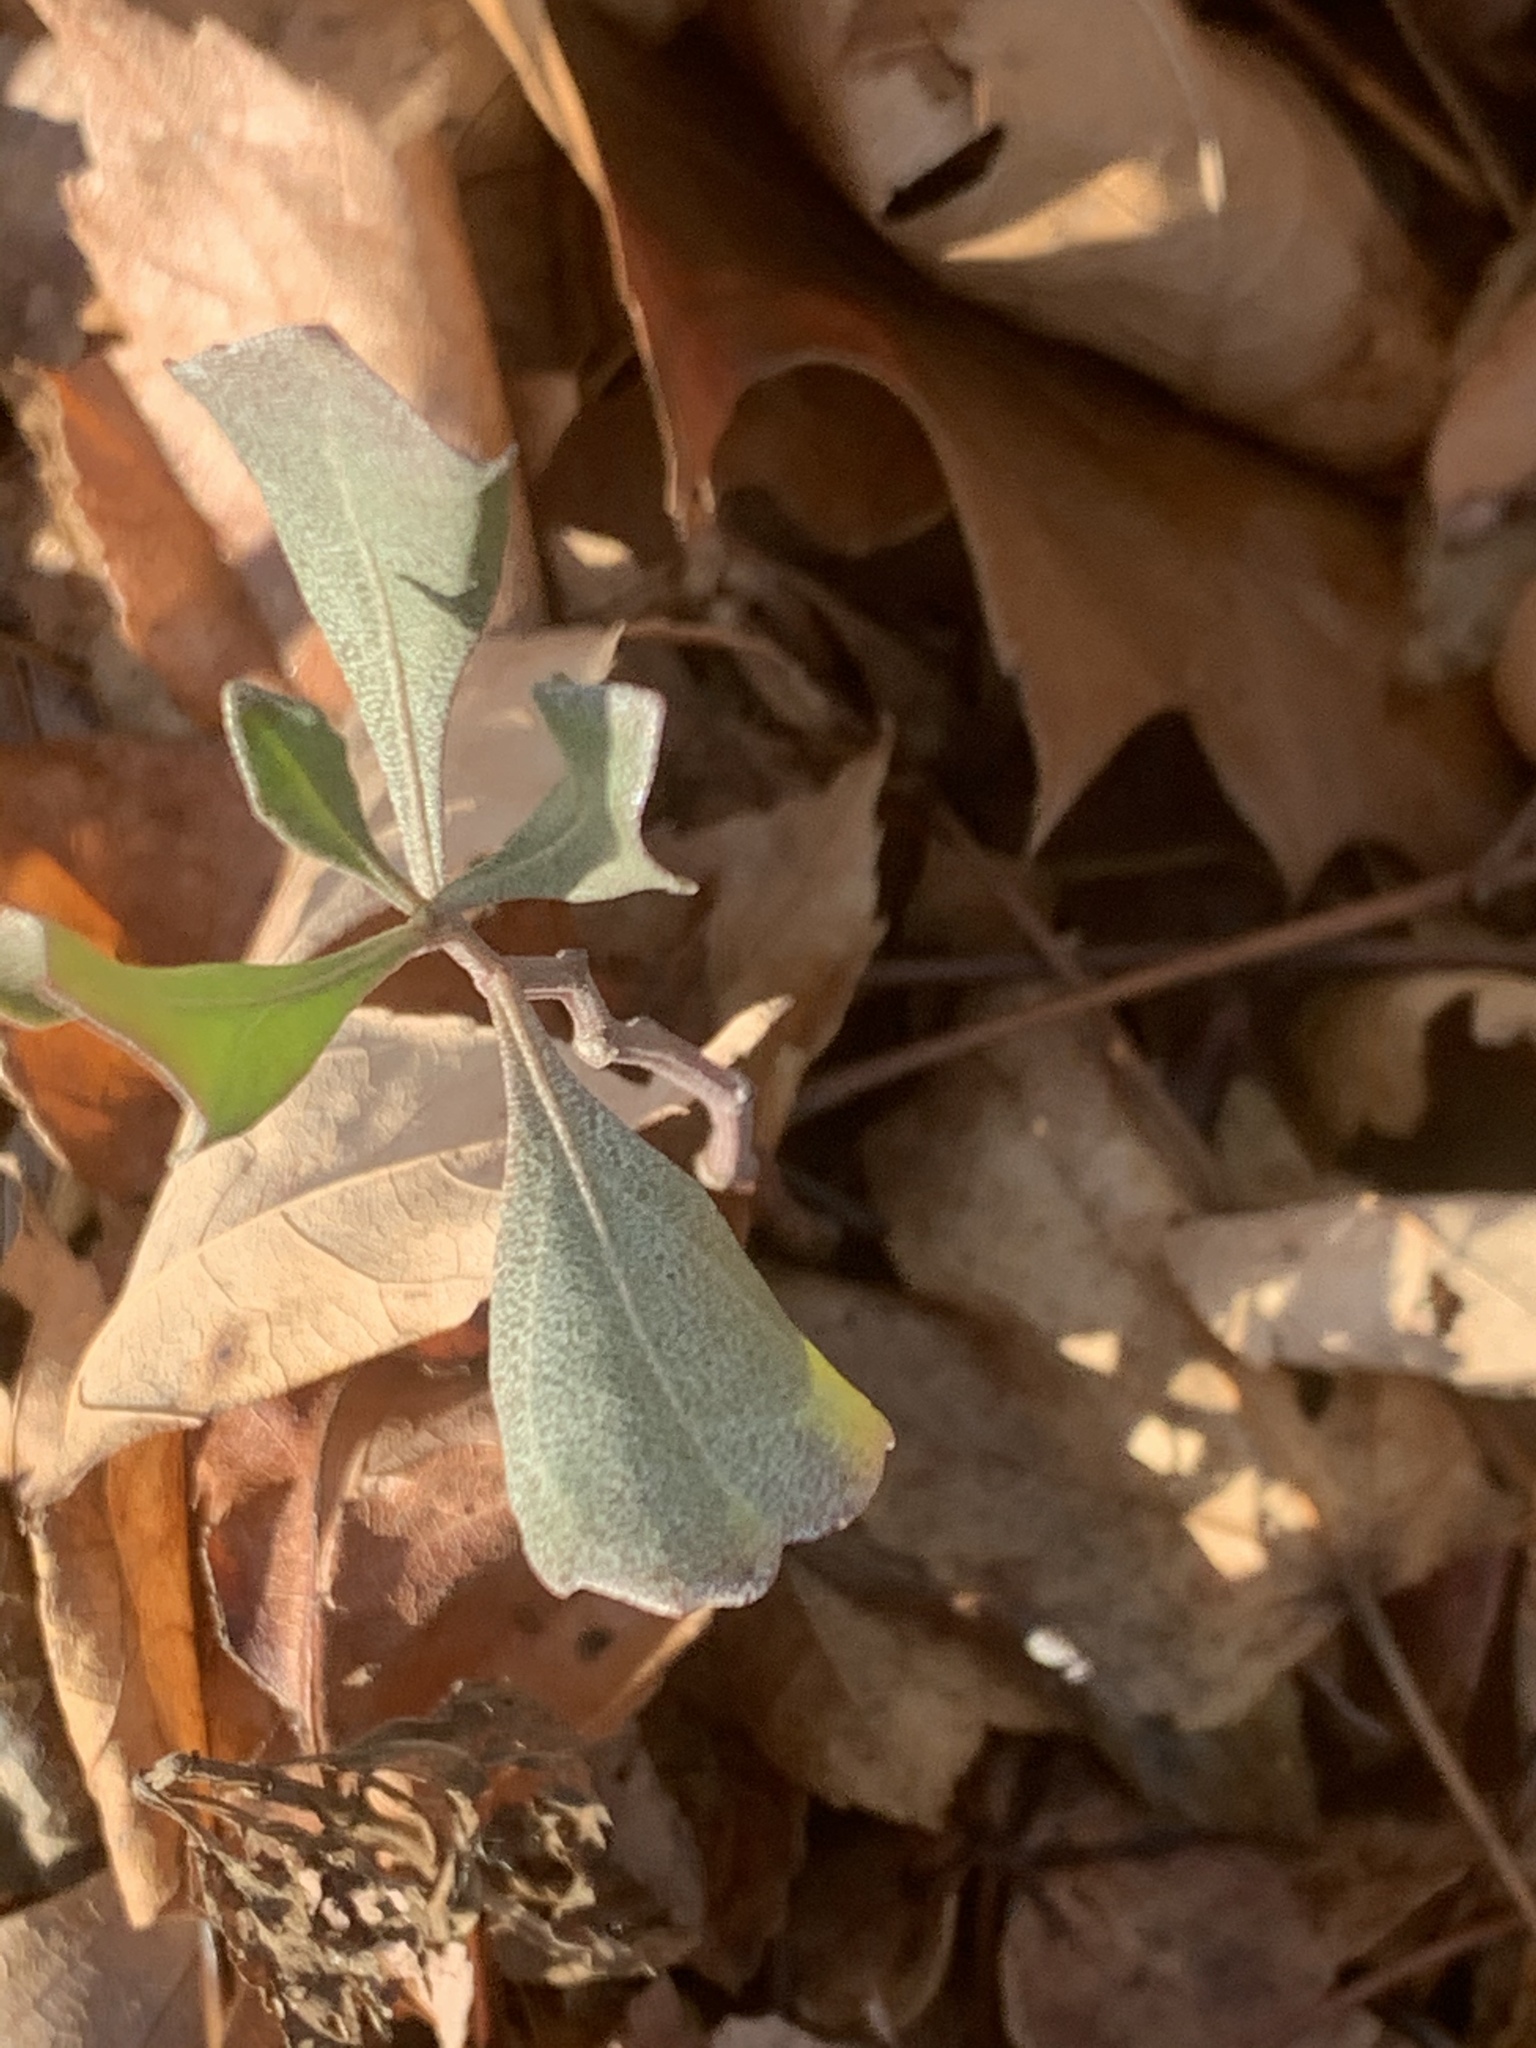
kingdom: Plantae
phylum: Tracheophyta
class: Magnoliopsida
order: Asterales
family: Asteraceae
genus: Baccharis
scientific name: Baccharis halimifolia
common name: Eastern baccharis
